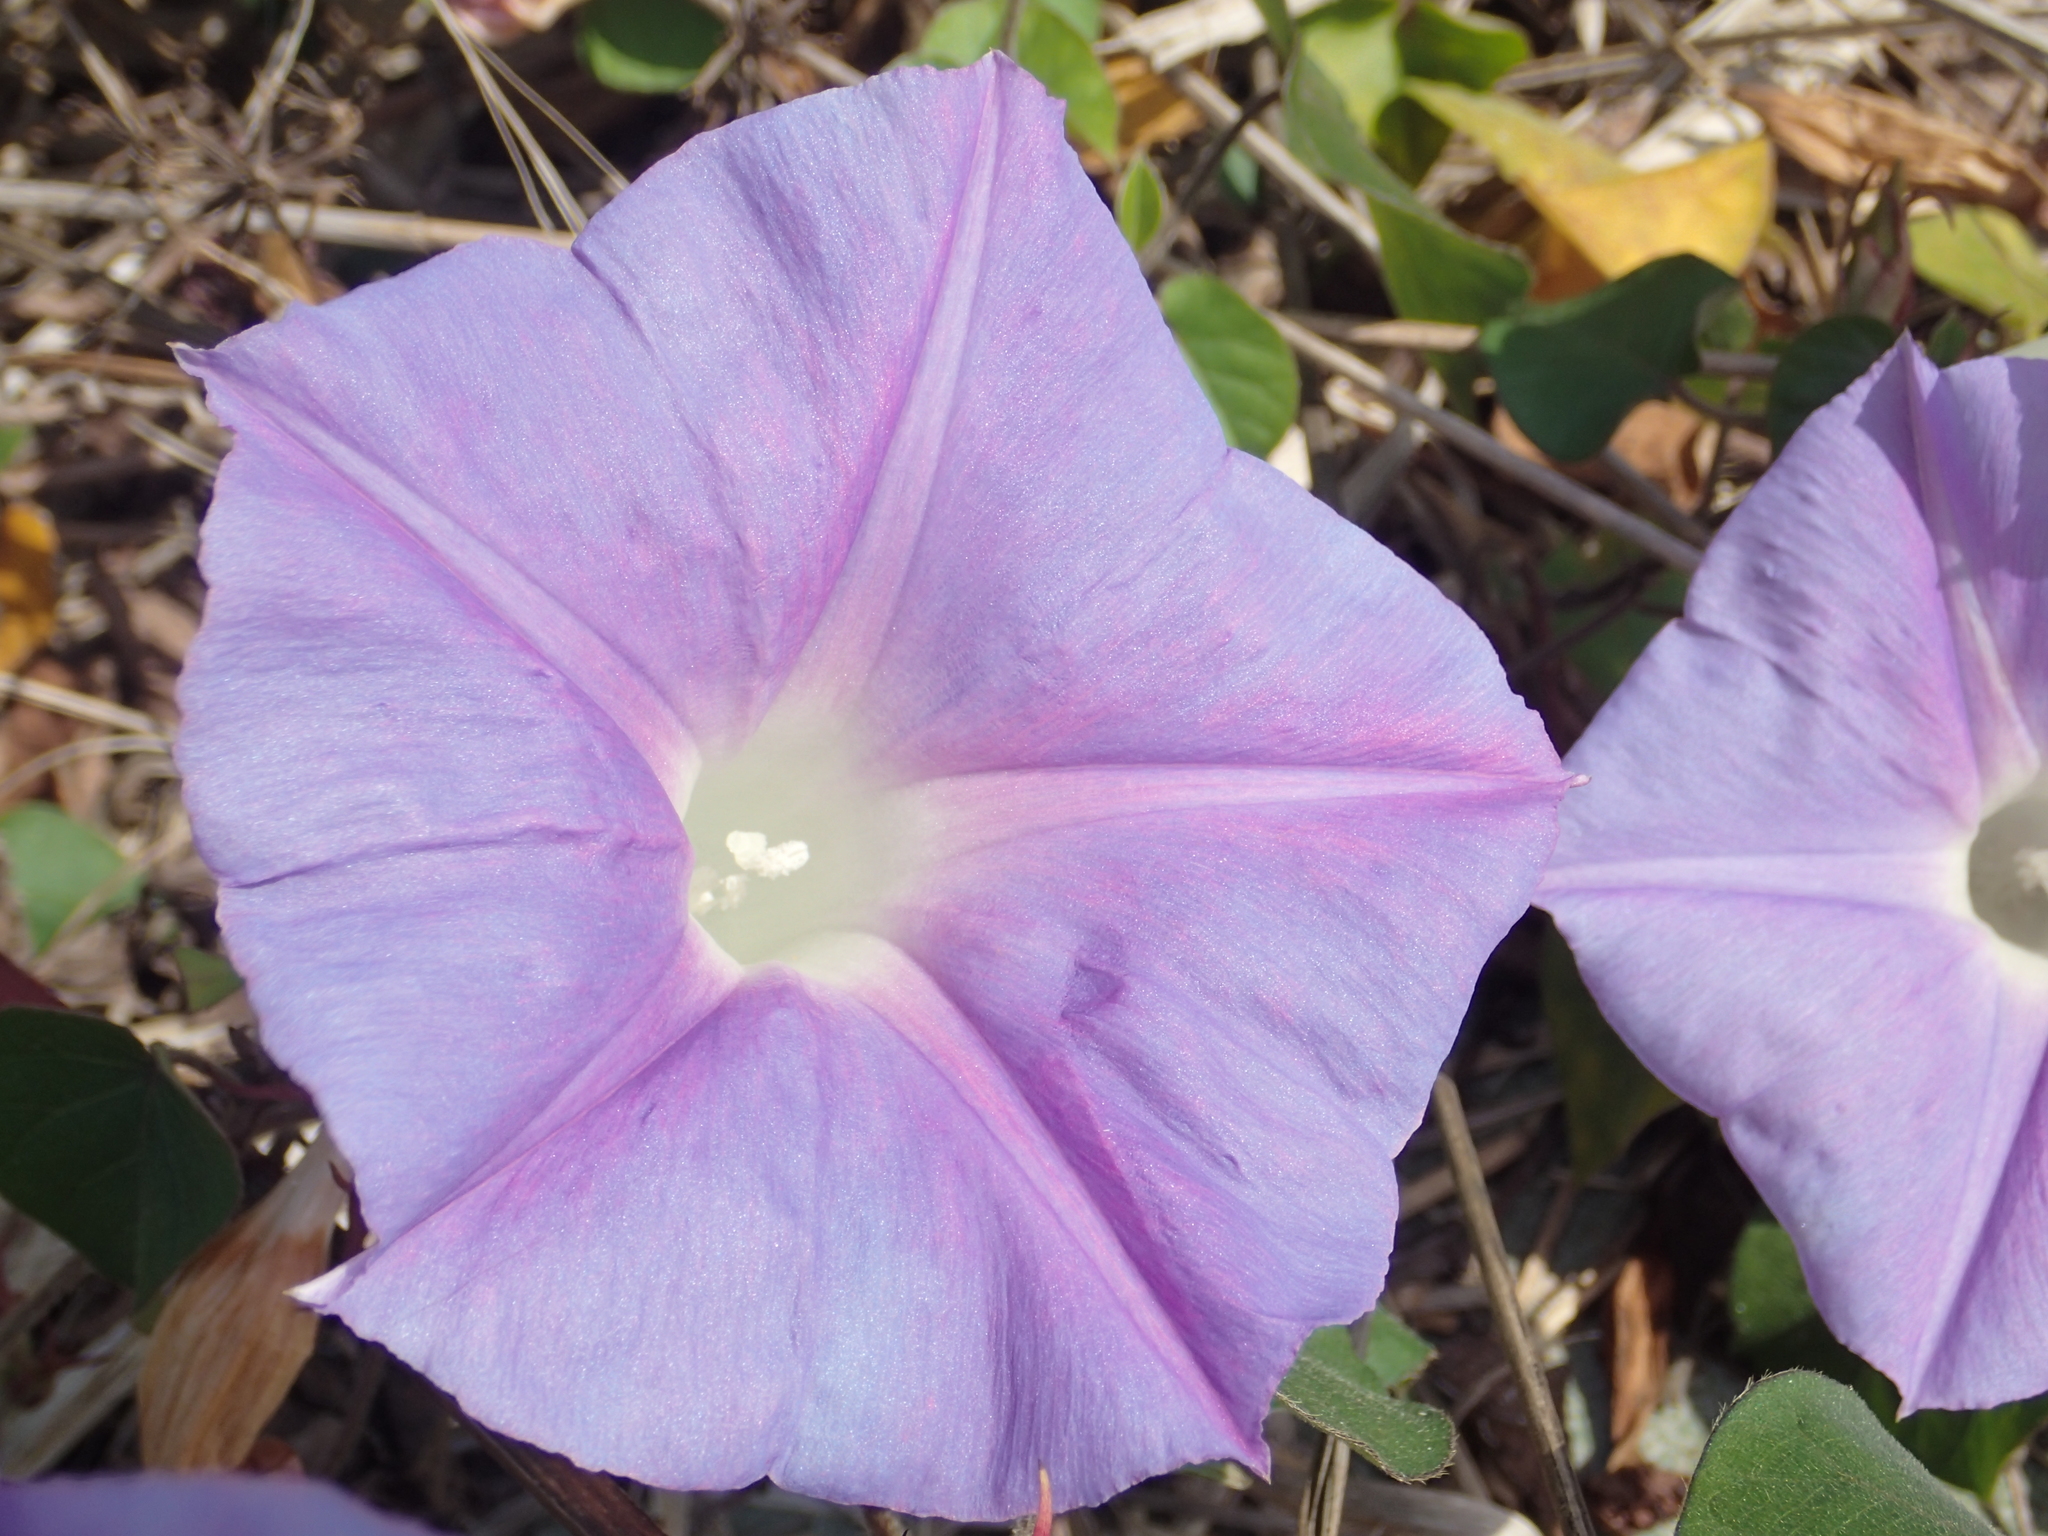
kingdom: Plantae
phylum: Tracheophyta
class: Magnoliopsida
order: Solanales
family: Convolvulaceae
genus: Ipomoea
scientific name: Ipomoea indica
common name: Blue dawnflower
